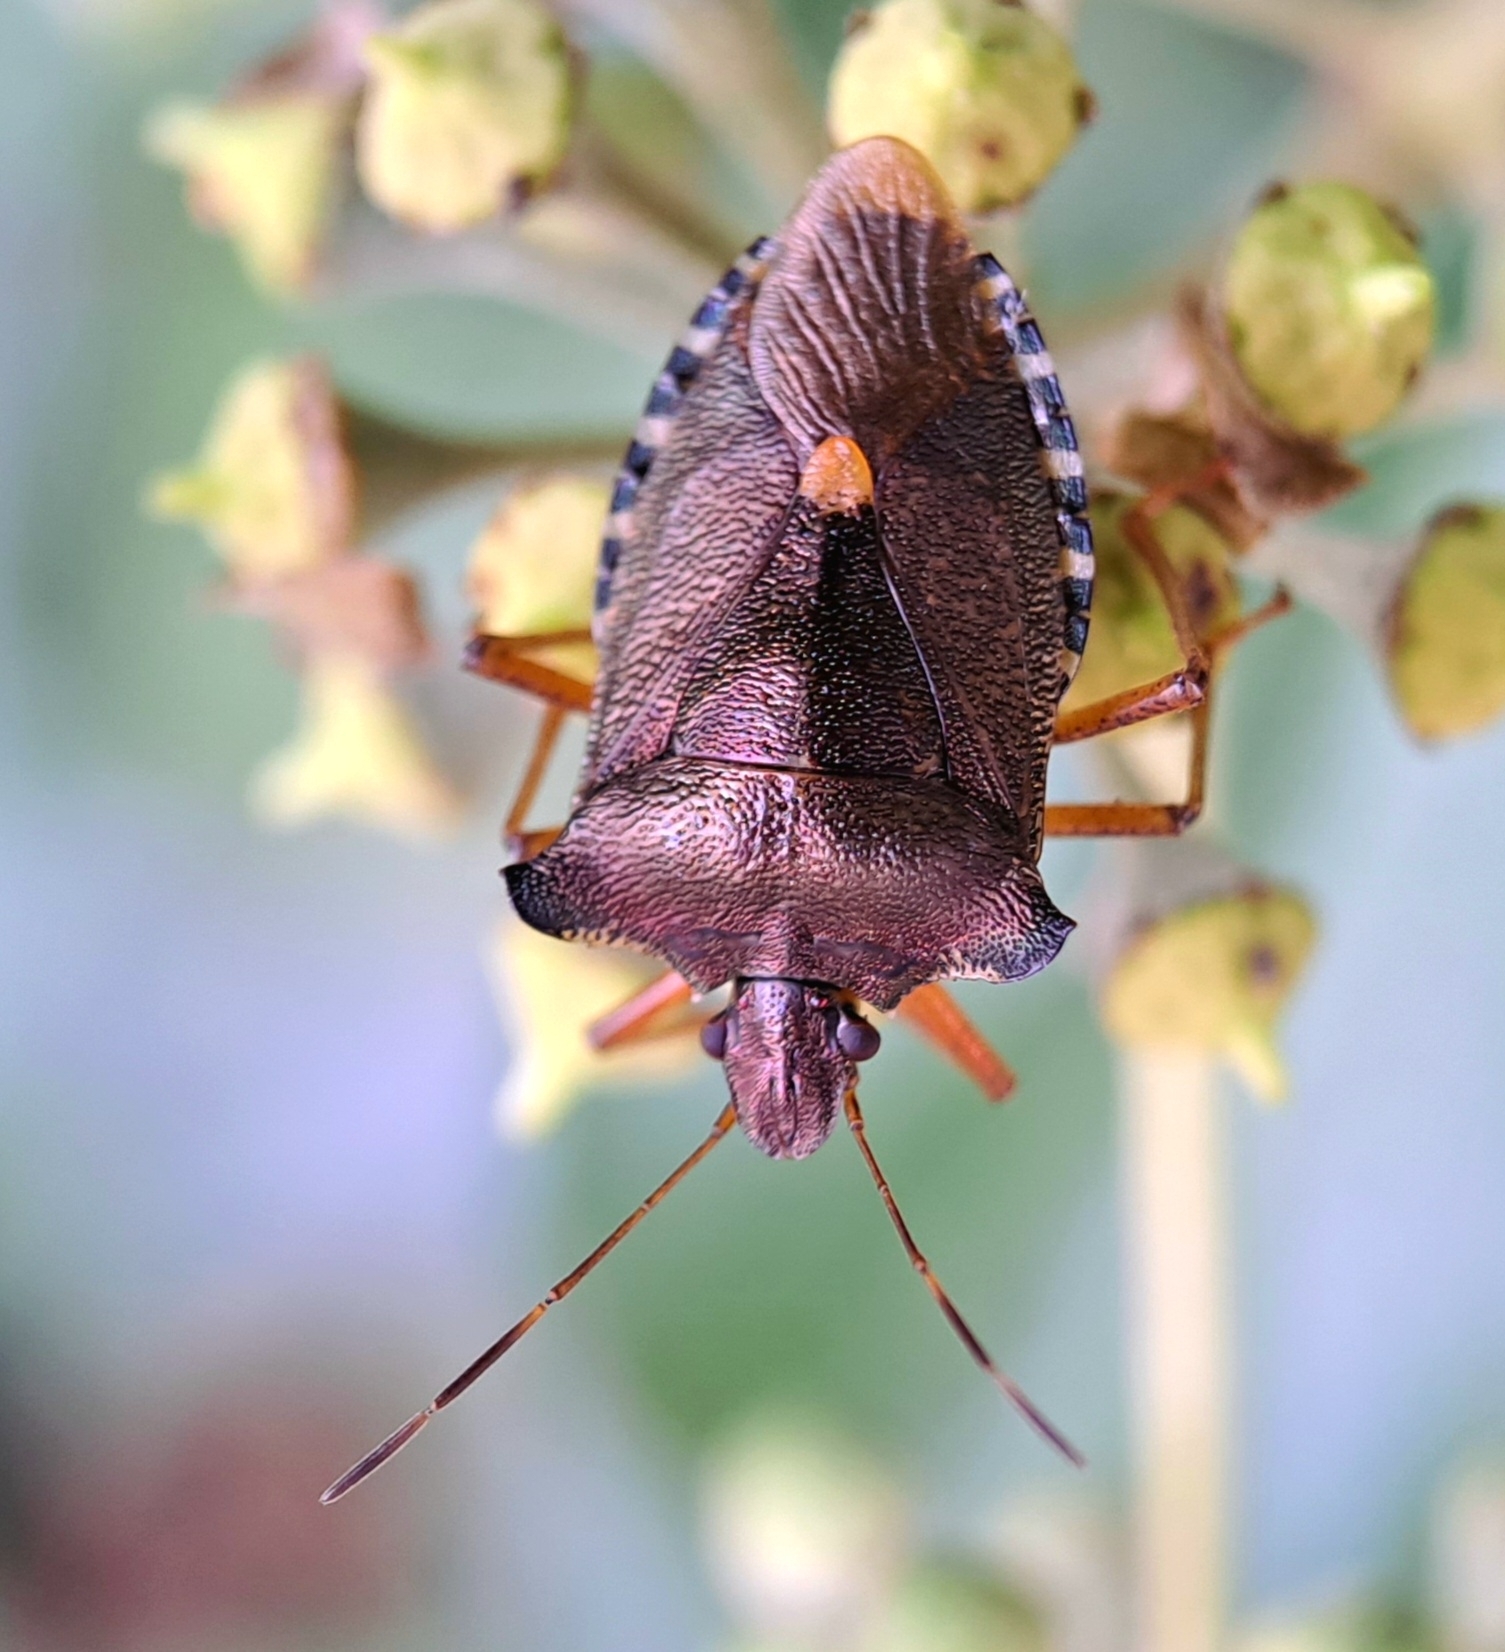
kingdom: Animalia
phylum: Arthropoda
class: Insecta
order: Hemiptera
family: Pentatomidae
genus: Pentatoma
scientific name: Pentatoma rufipes
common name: Forest bug
